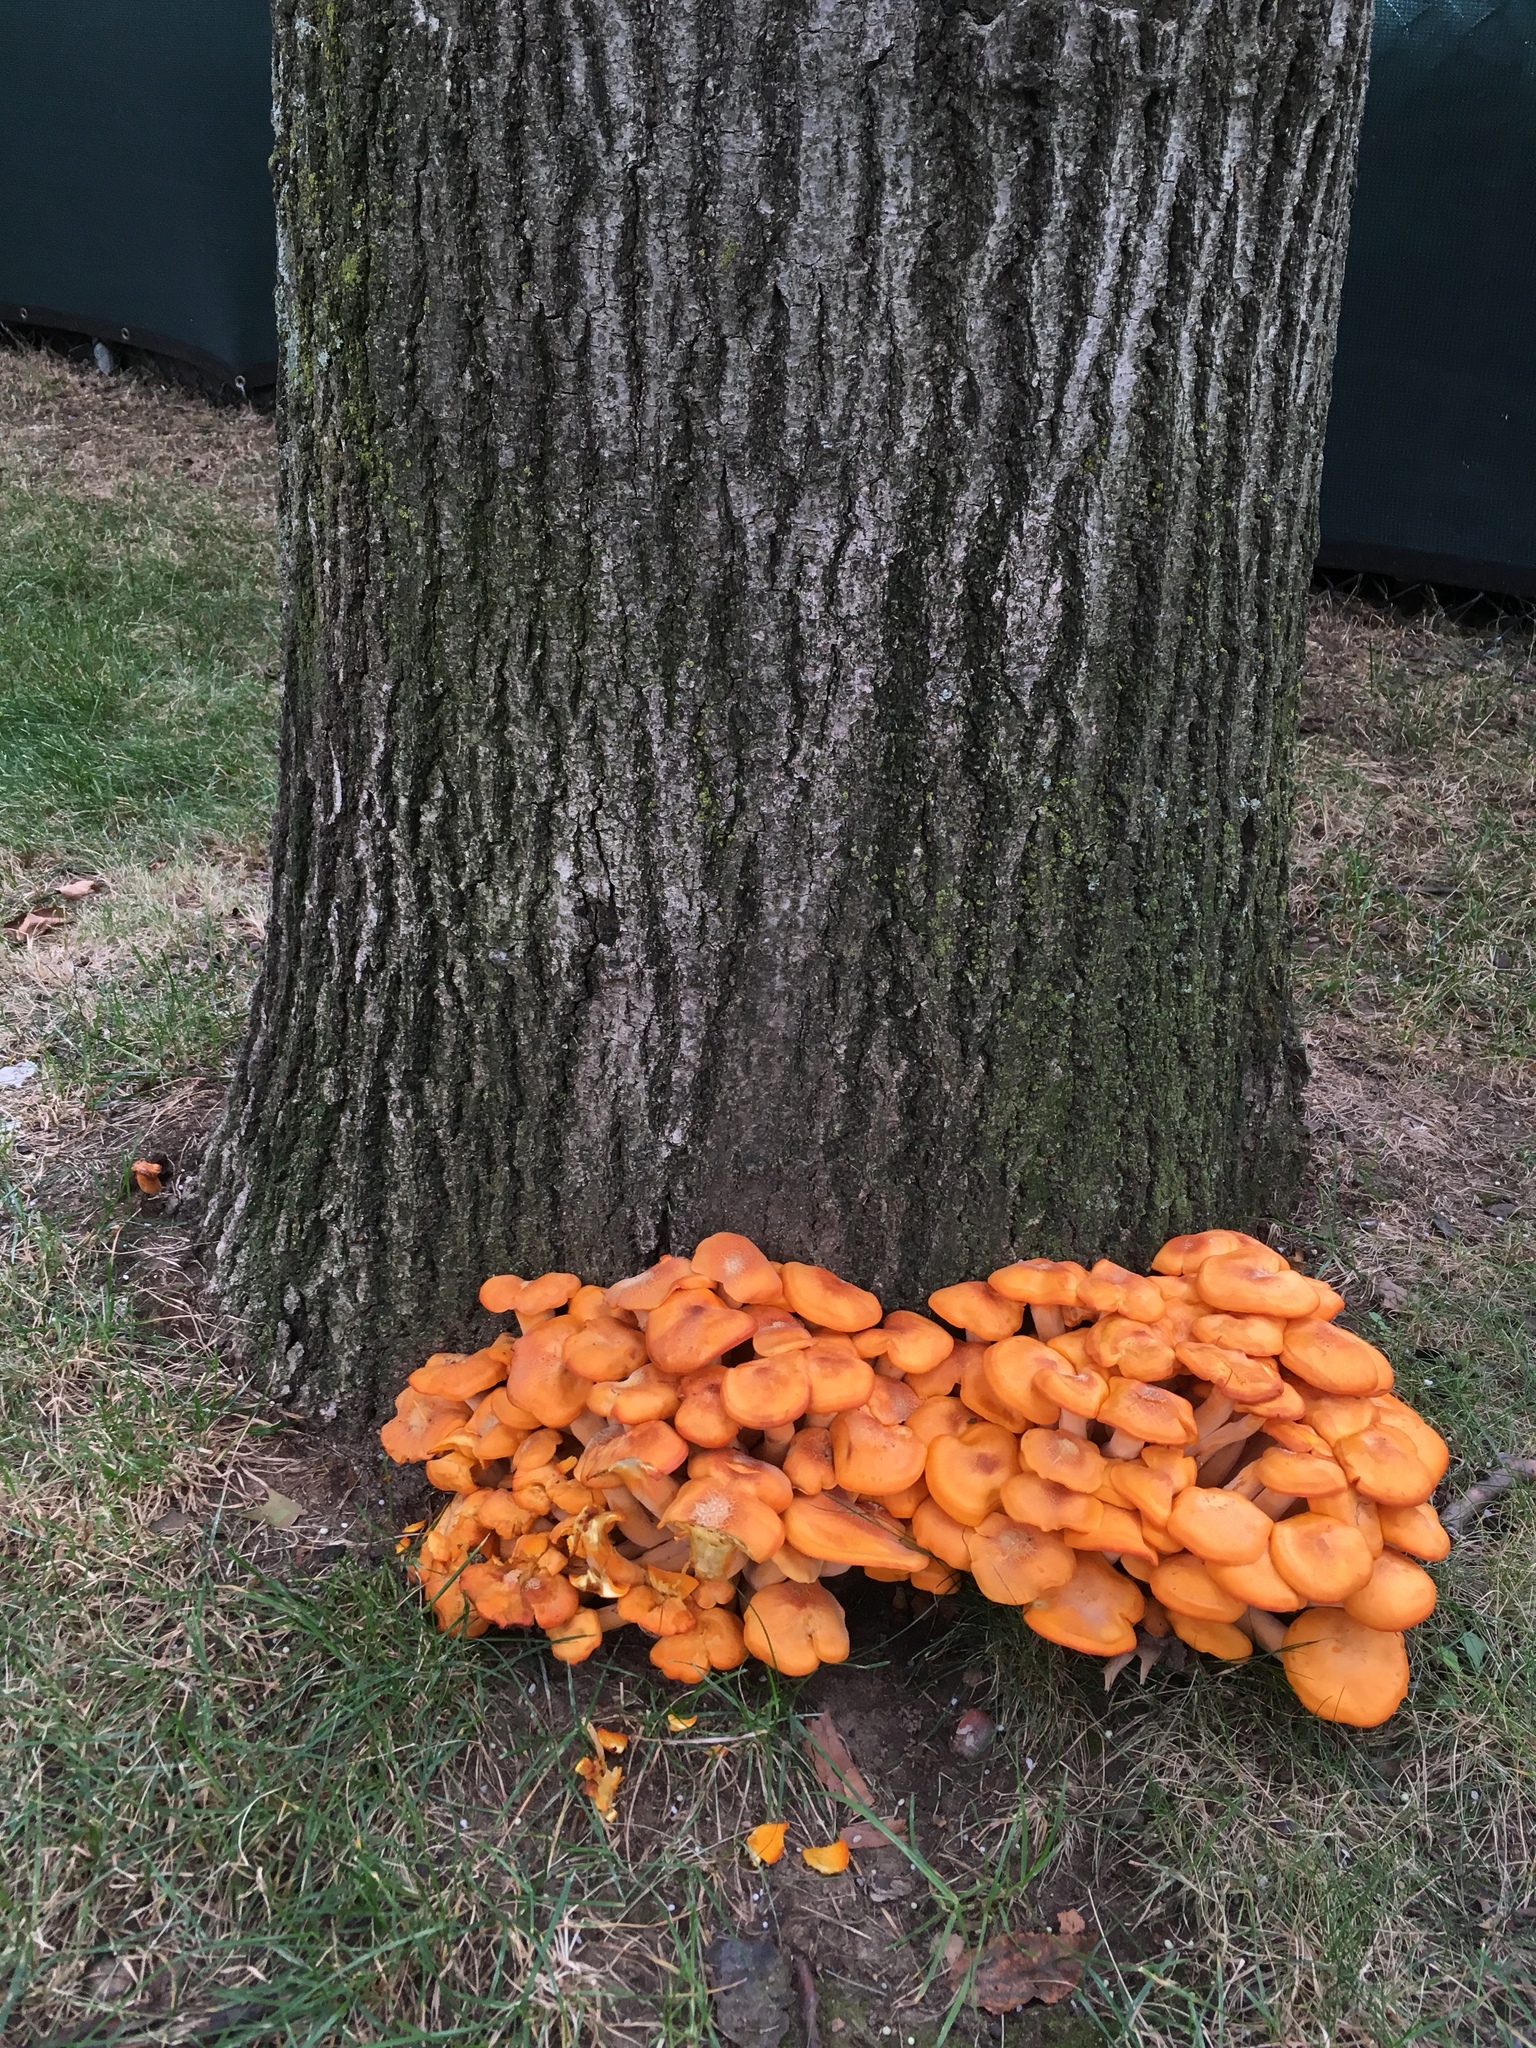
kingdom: Fungi
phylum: Basidiomycota
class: Agaricomycetes
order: Agaricales
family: Omphalotaceae
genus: Omphalotus
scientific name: Omphalotus illudens
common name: Jack o lantern
